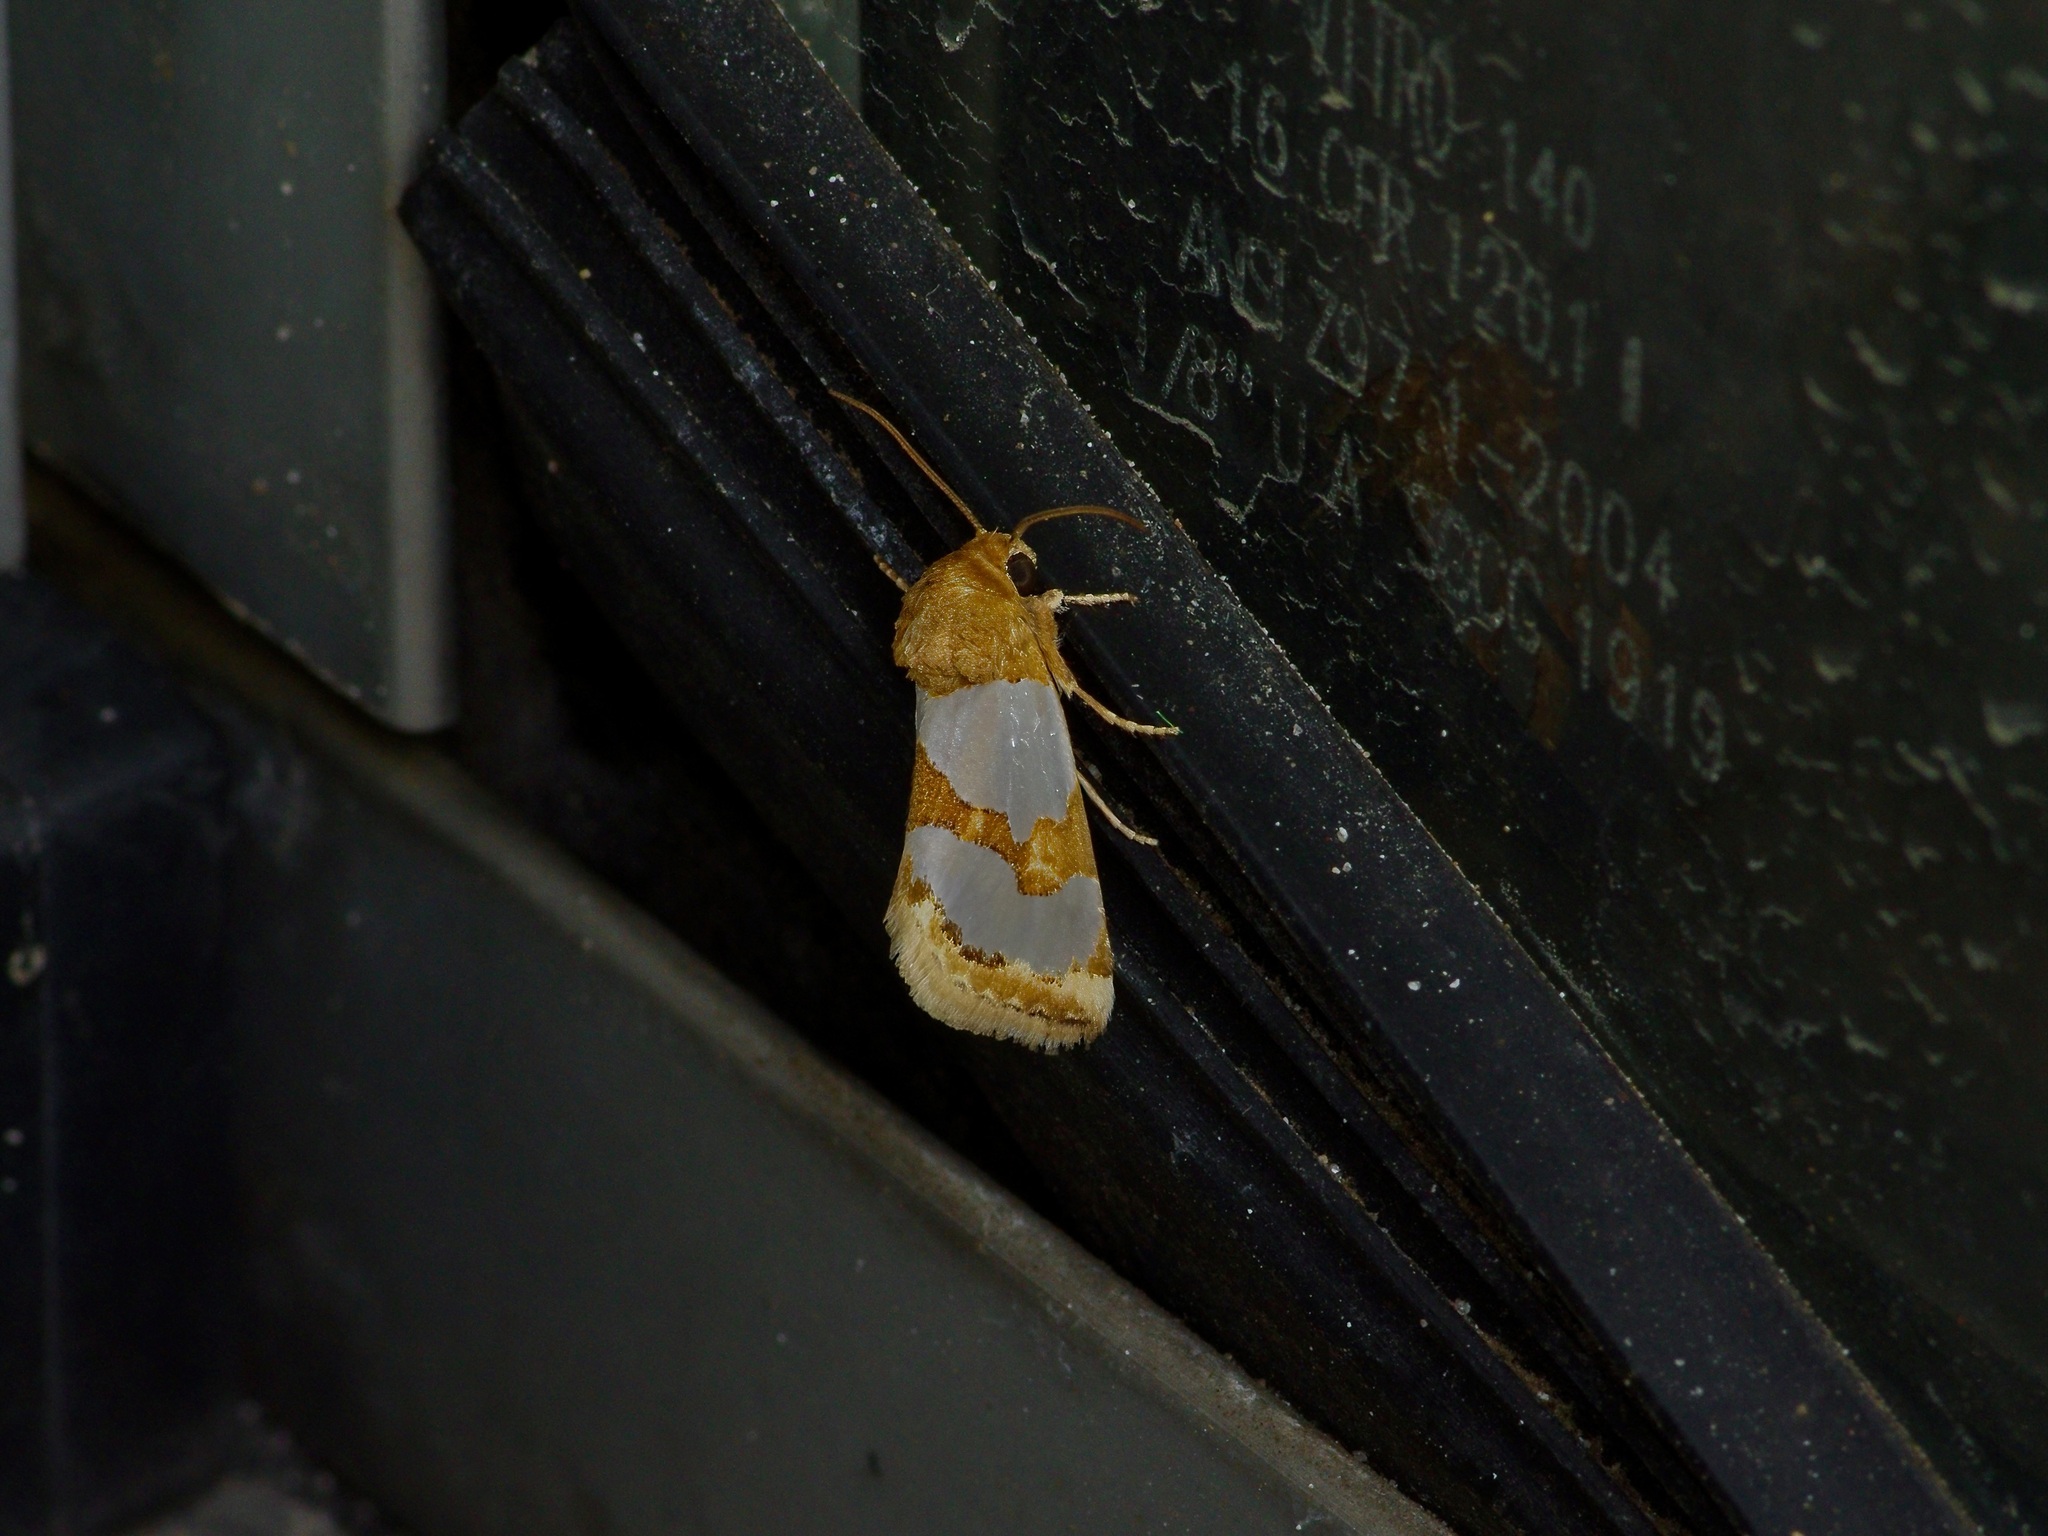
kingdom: Animalia
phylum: Arthropoda
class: Insecta
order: Lepidoptera
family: Noctuidae
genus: Schinia
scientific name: Schinia chrysellus
